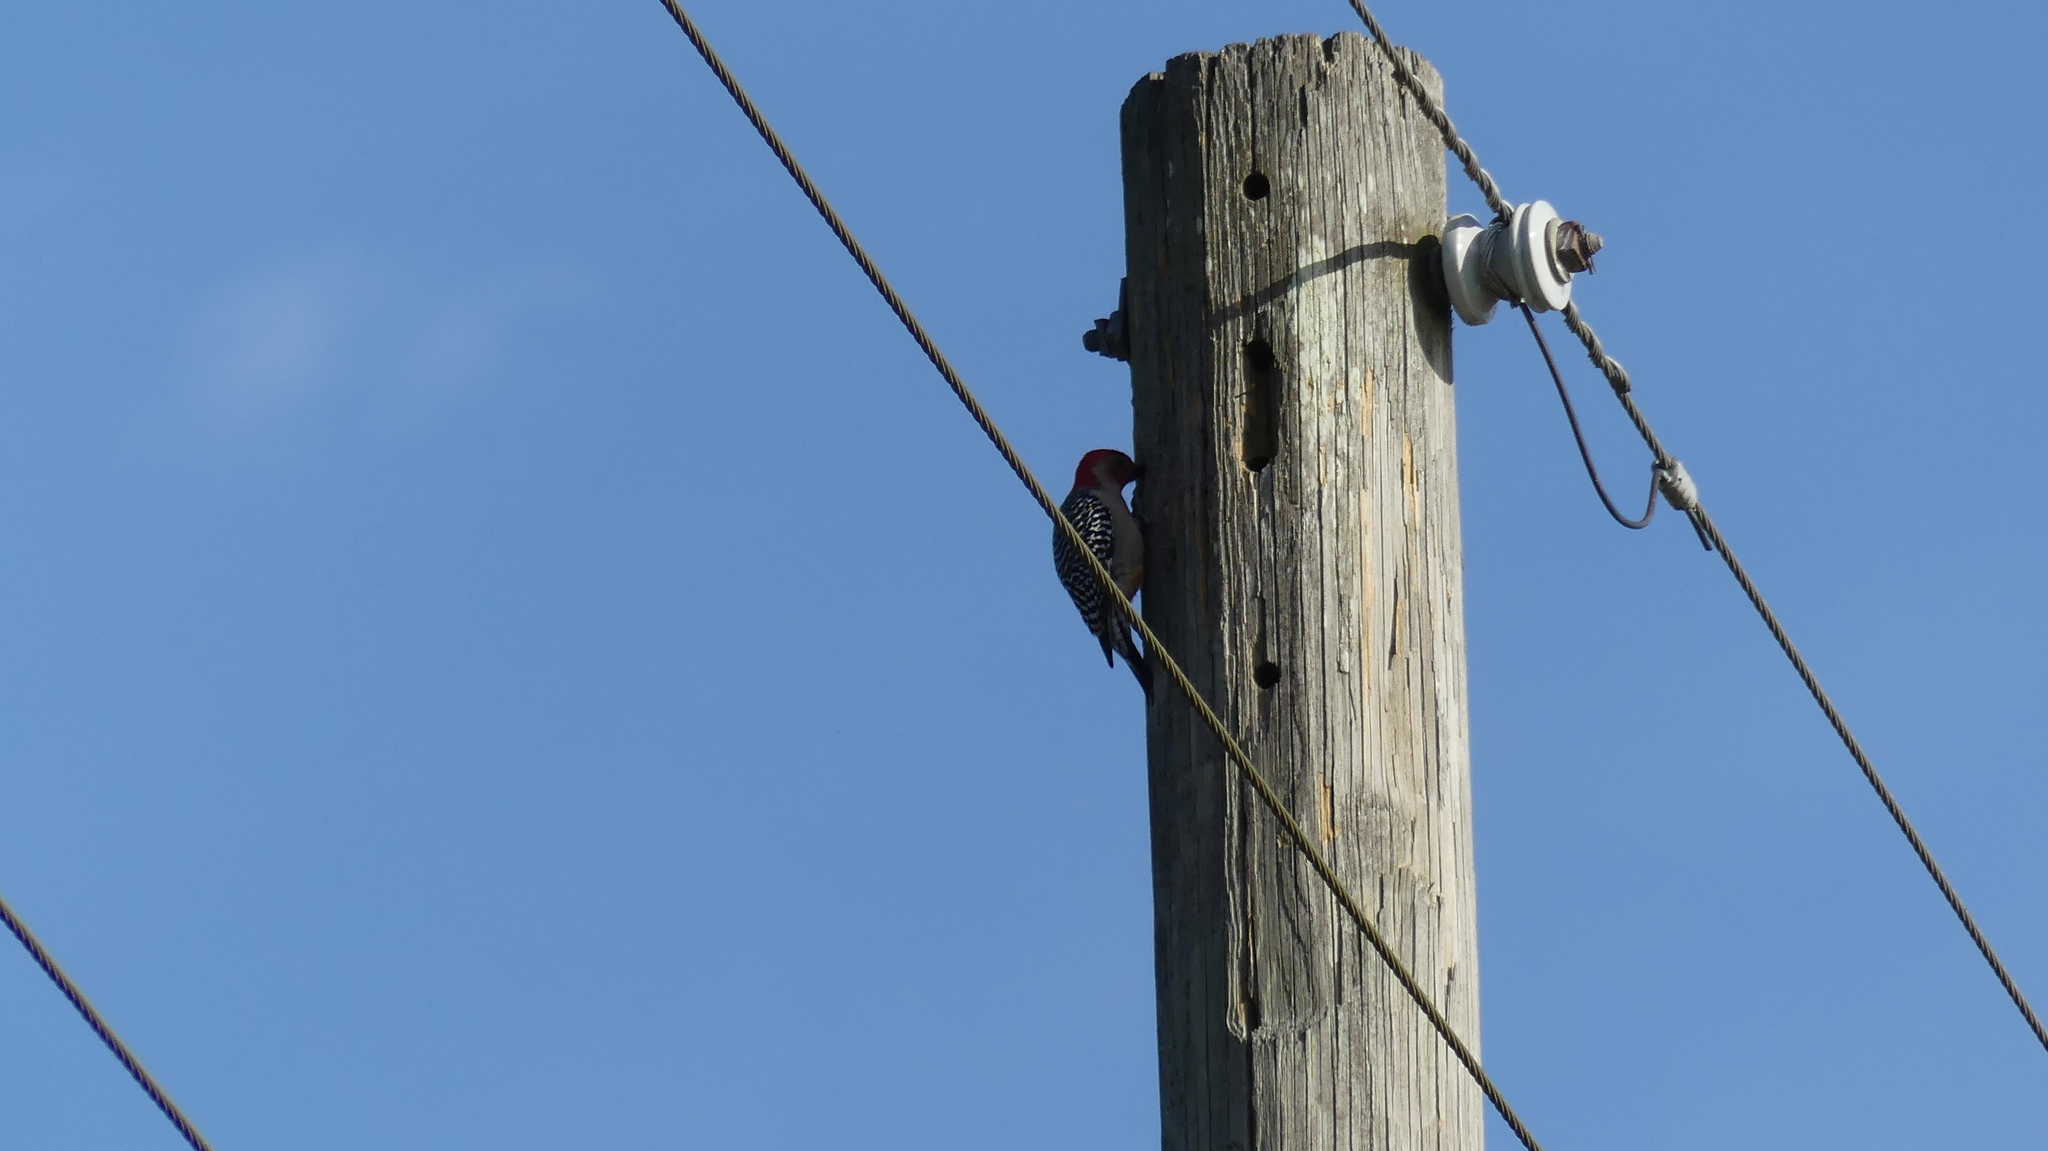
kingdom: Animalia
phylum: Chordata
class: Aves
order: Piciformes
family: Picidae
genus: Melanerpes
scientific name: Melanerpes carolinus
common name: Red-bellied woodpecker
